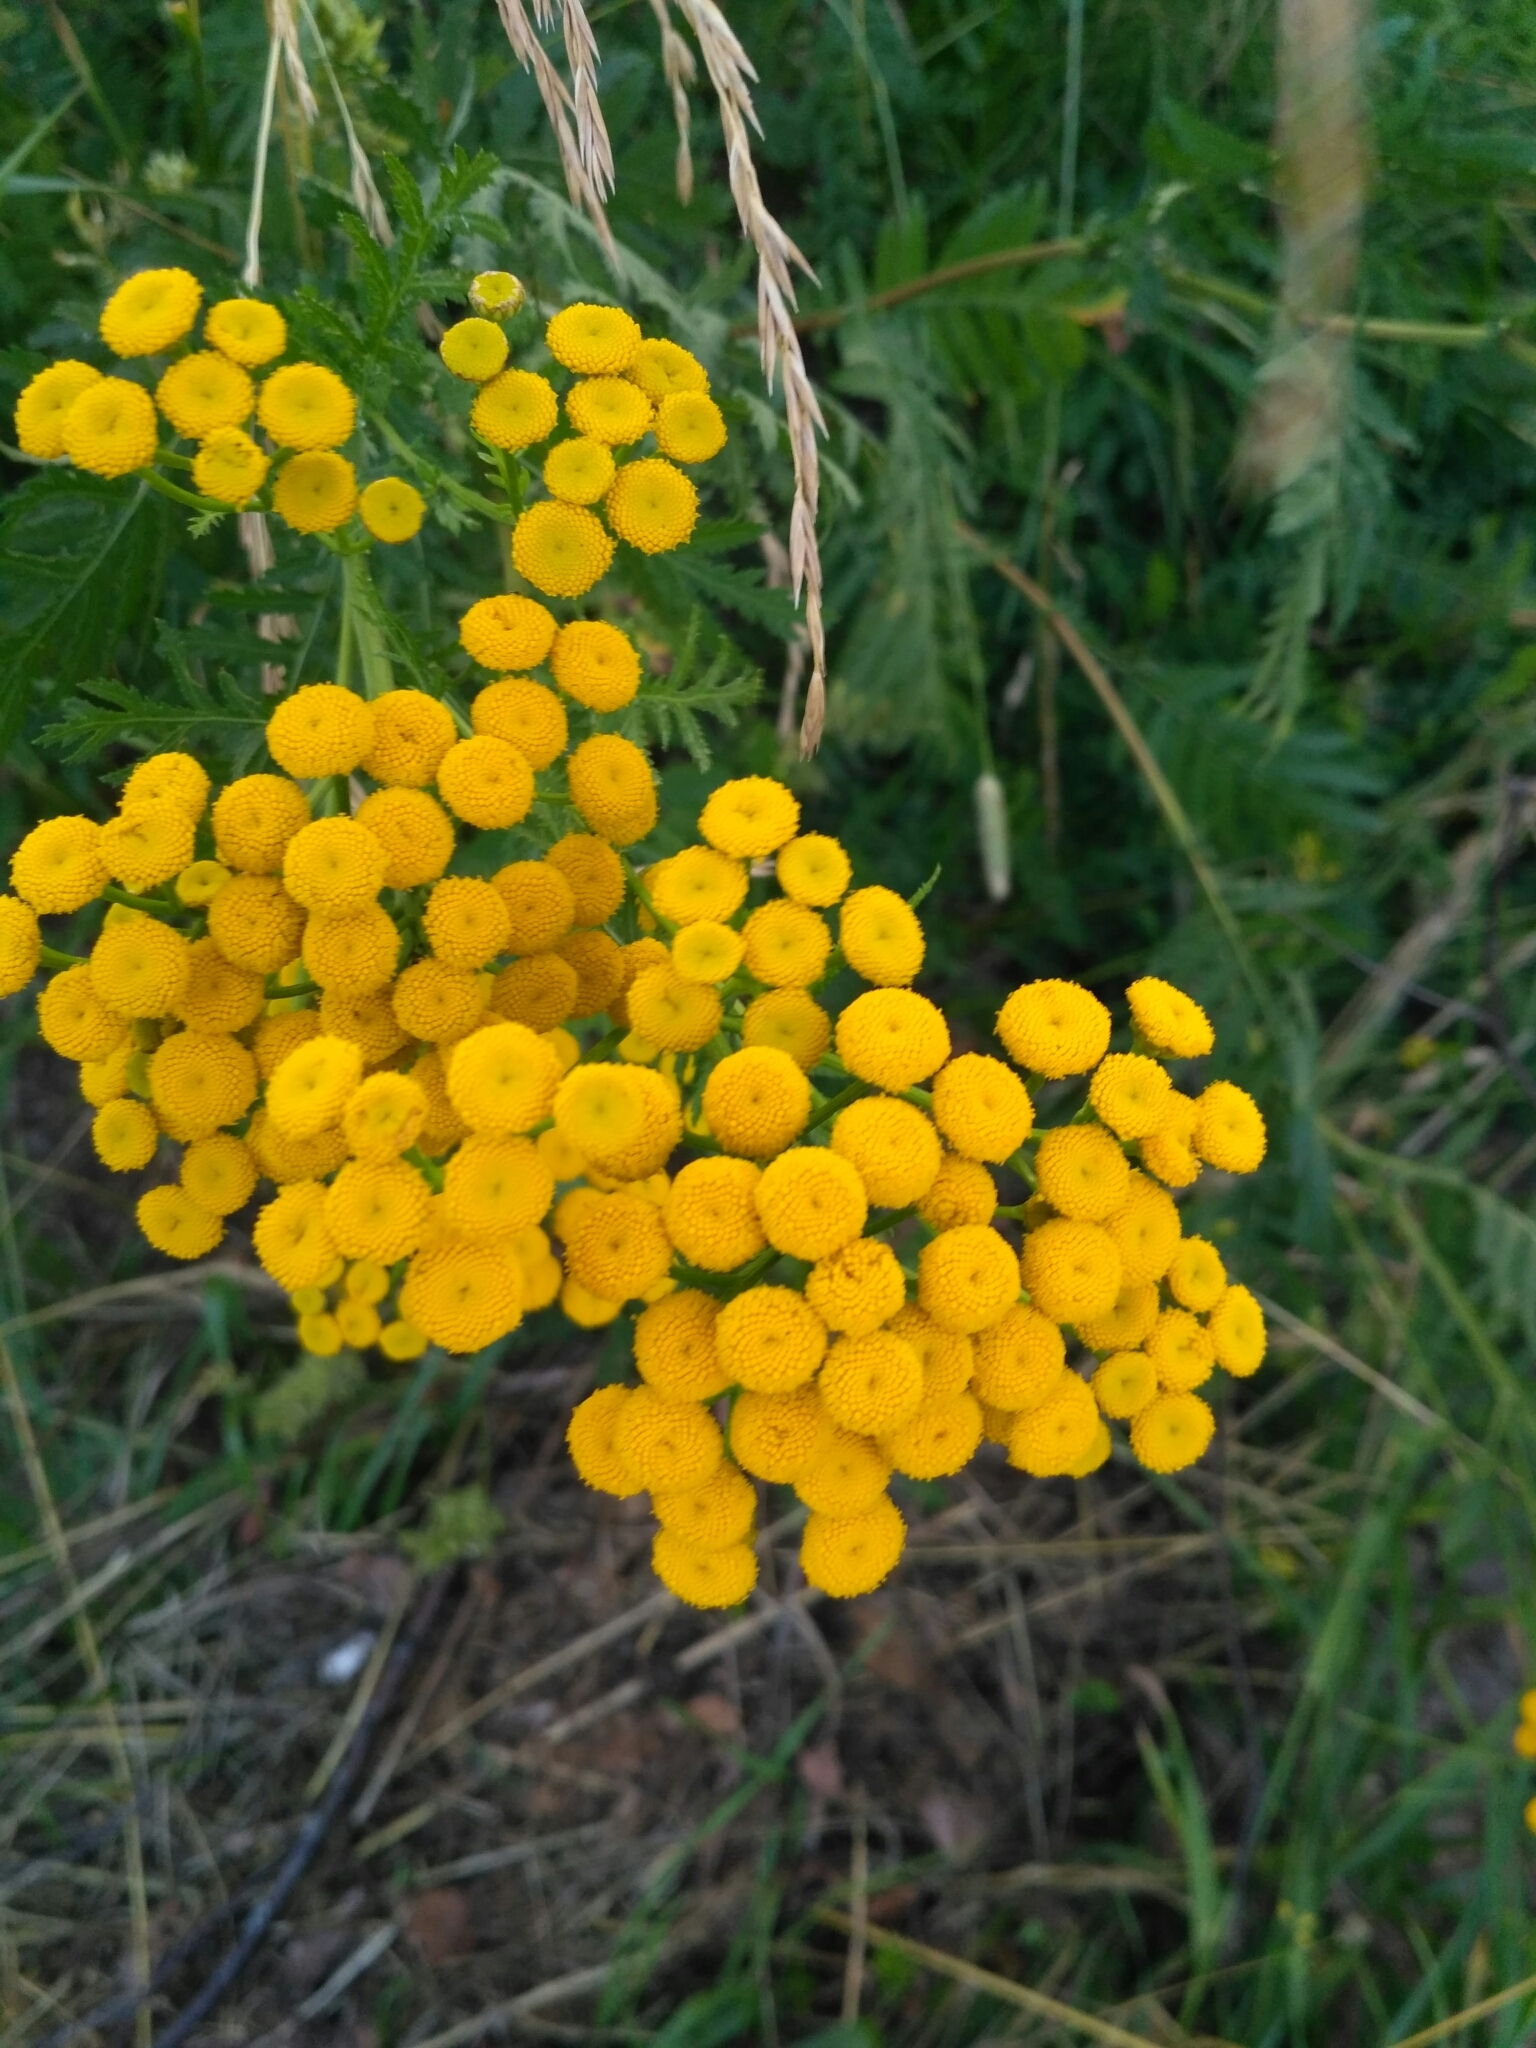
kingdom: Plantae
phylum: Tracheophyta
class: Magnoliopsida
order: Asterales
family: Asteraceae
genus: Tanacetum
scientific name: Tanacetum vulgare
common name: Common tansy
